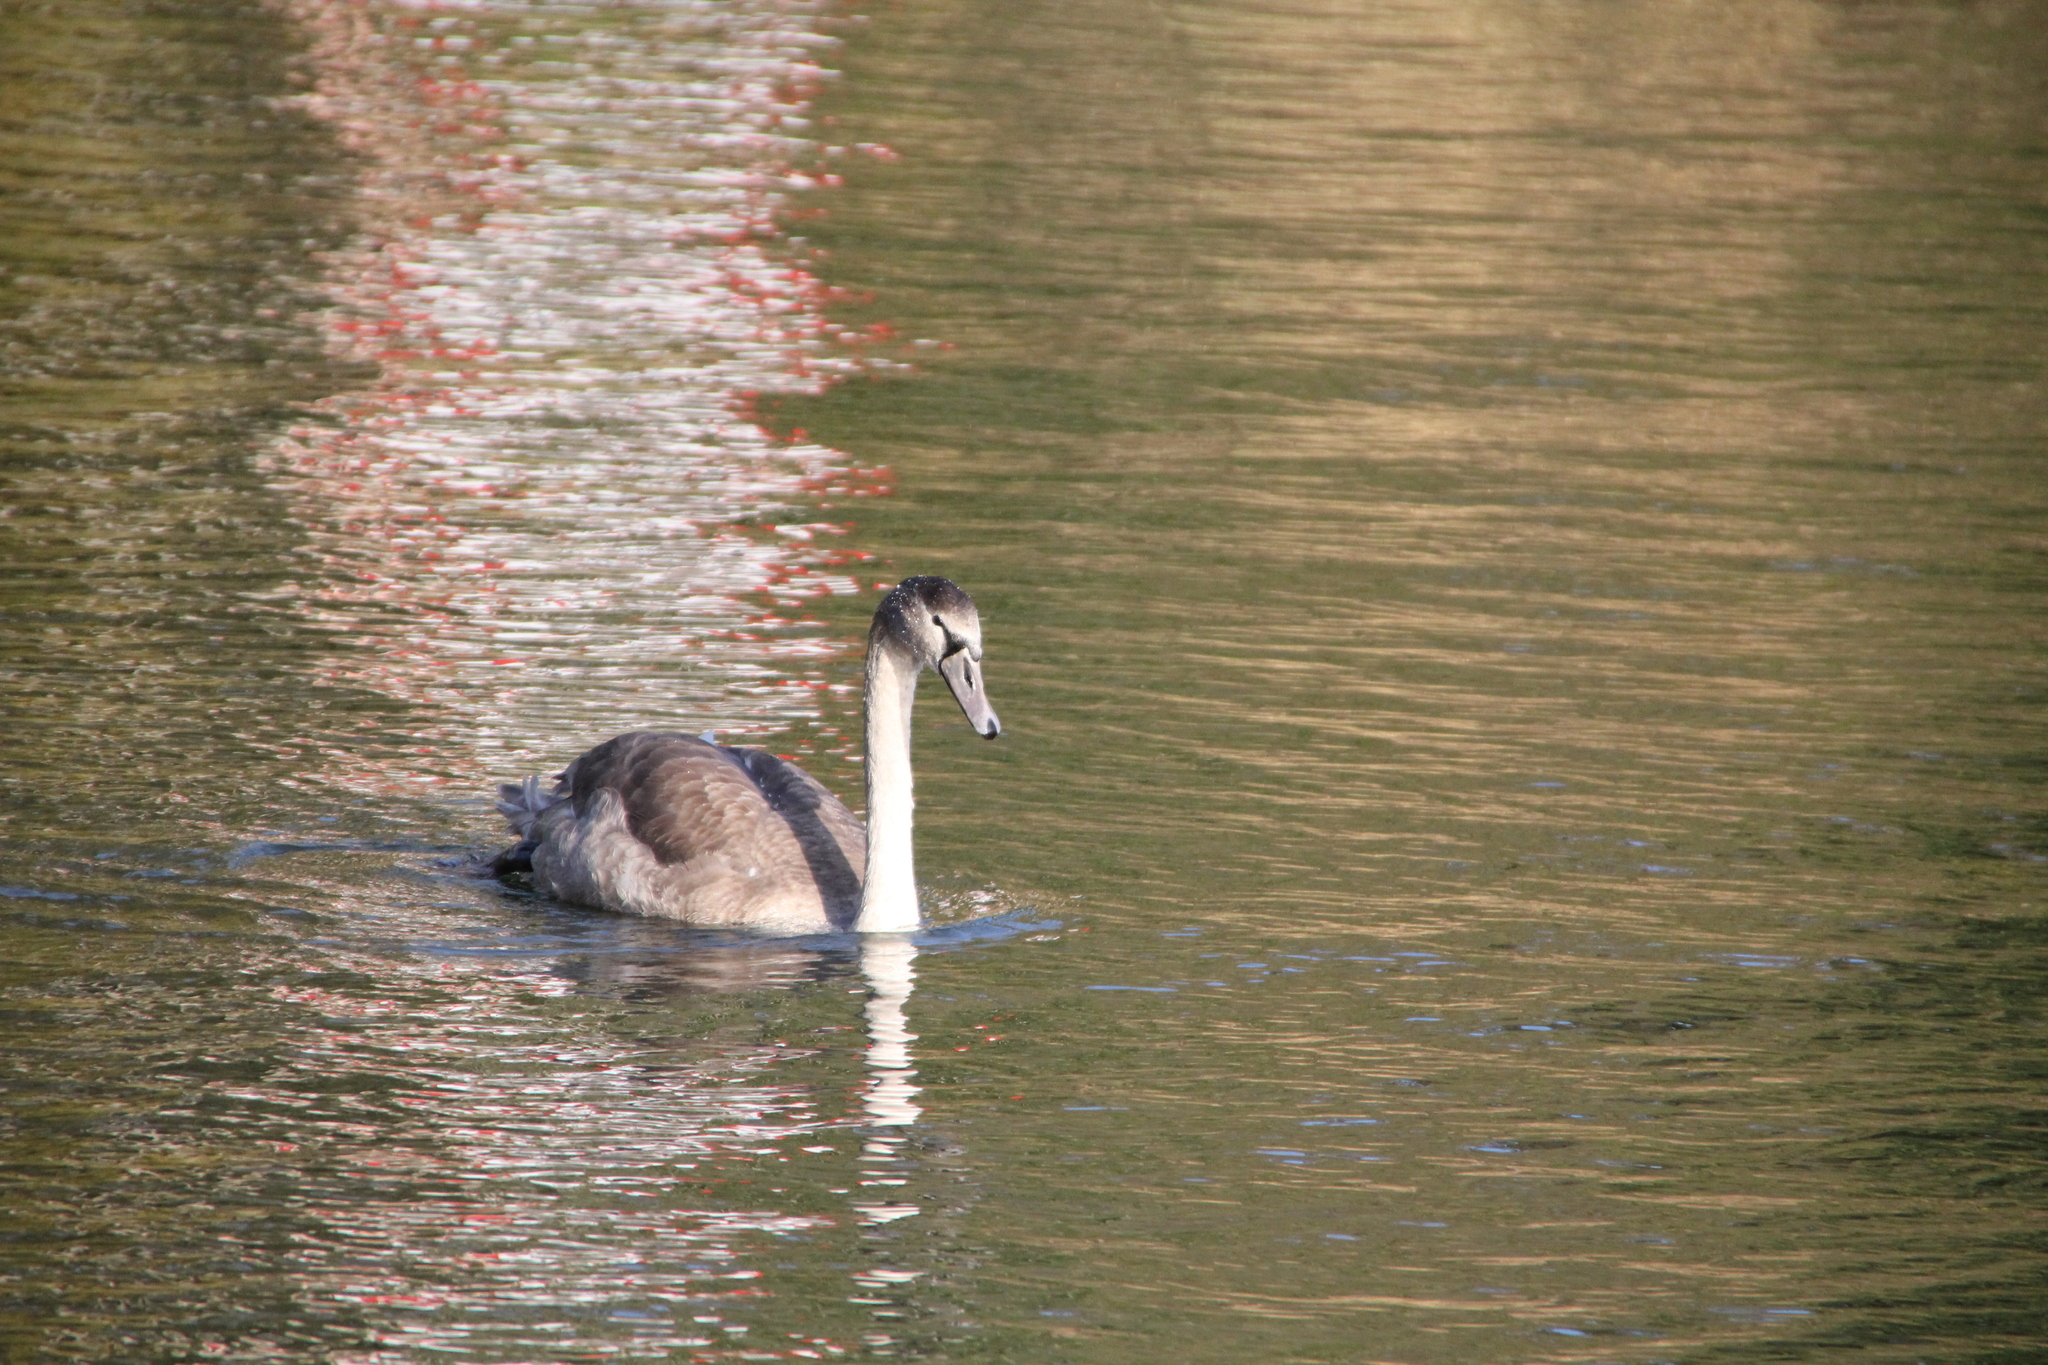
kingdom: Animalia
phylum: Chordata
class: Aves
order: Anseriformes
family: Anatidae
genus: Cygnus
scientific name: Cygnus olor
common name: Mute swan
